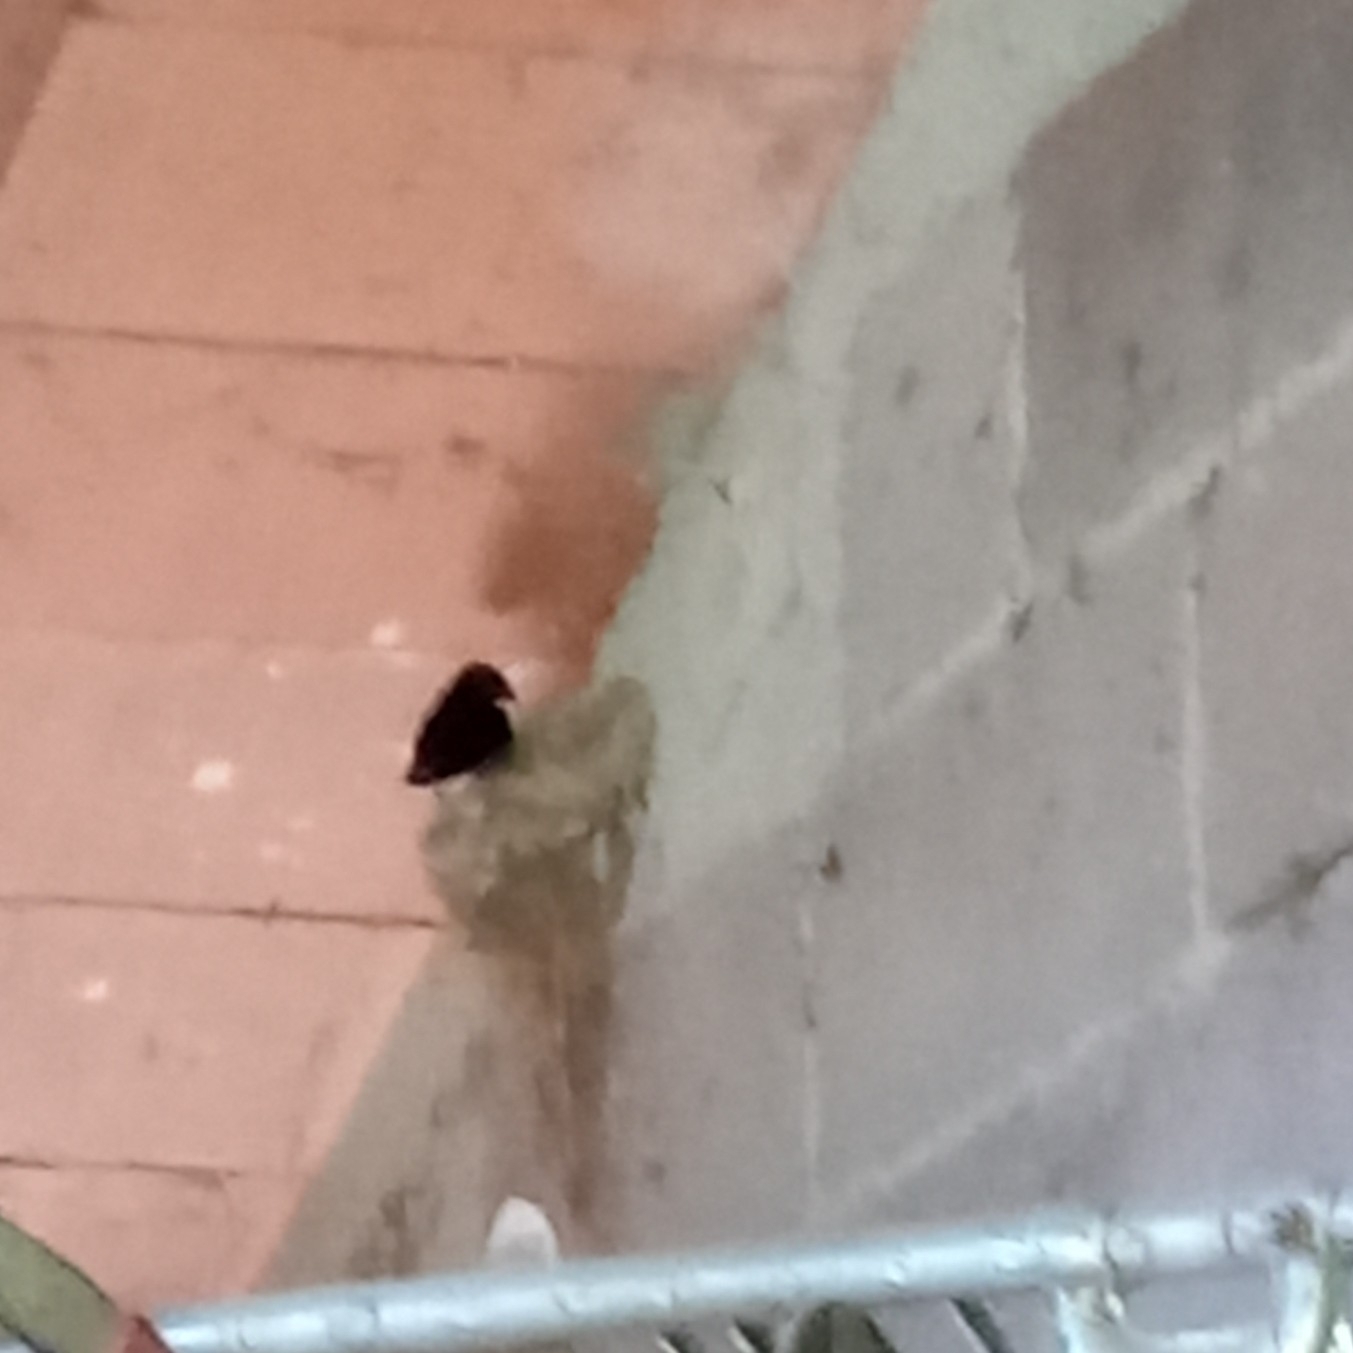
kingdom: Animalia
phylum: Chordata
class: Aves
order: Passeriformes
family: Hirundinidae
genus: Hirundo
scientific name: Hirundo rustica
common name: Barn swallow
